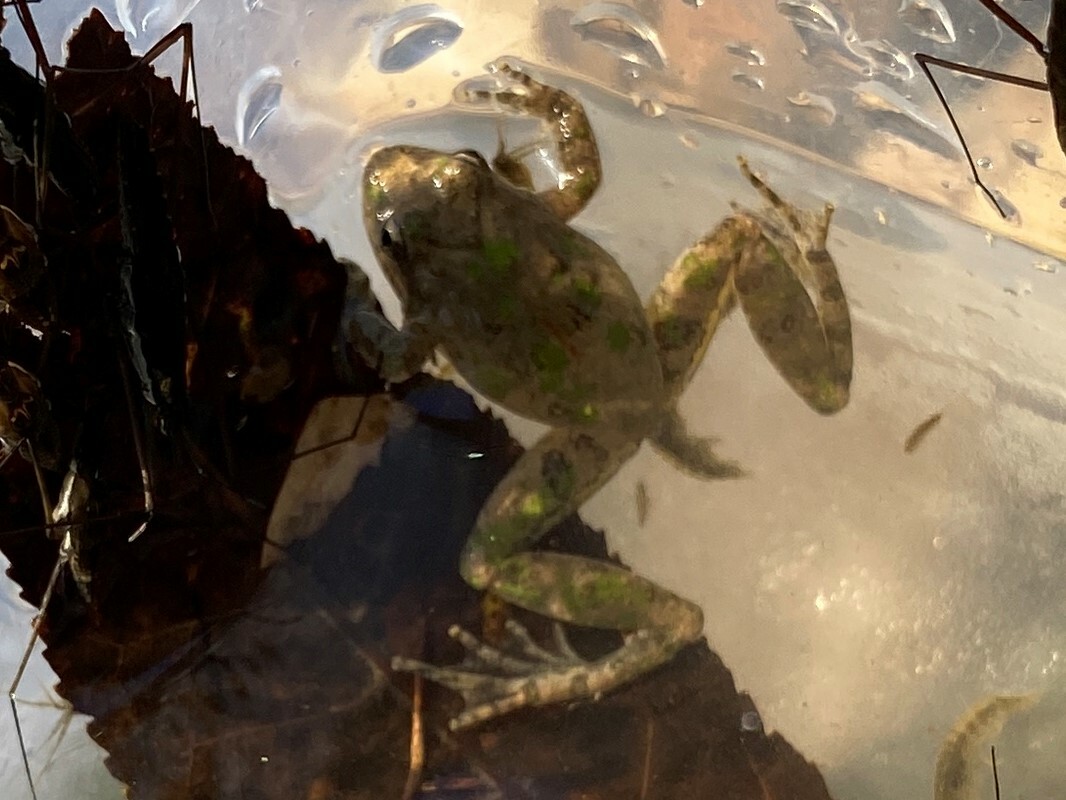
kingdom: Animalia
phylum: Chordata
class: Amphibia
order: Anura
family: Hylidae
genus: Acris
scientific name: Acris blanchardi
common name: Blanchard's cricket frog
